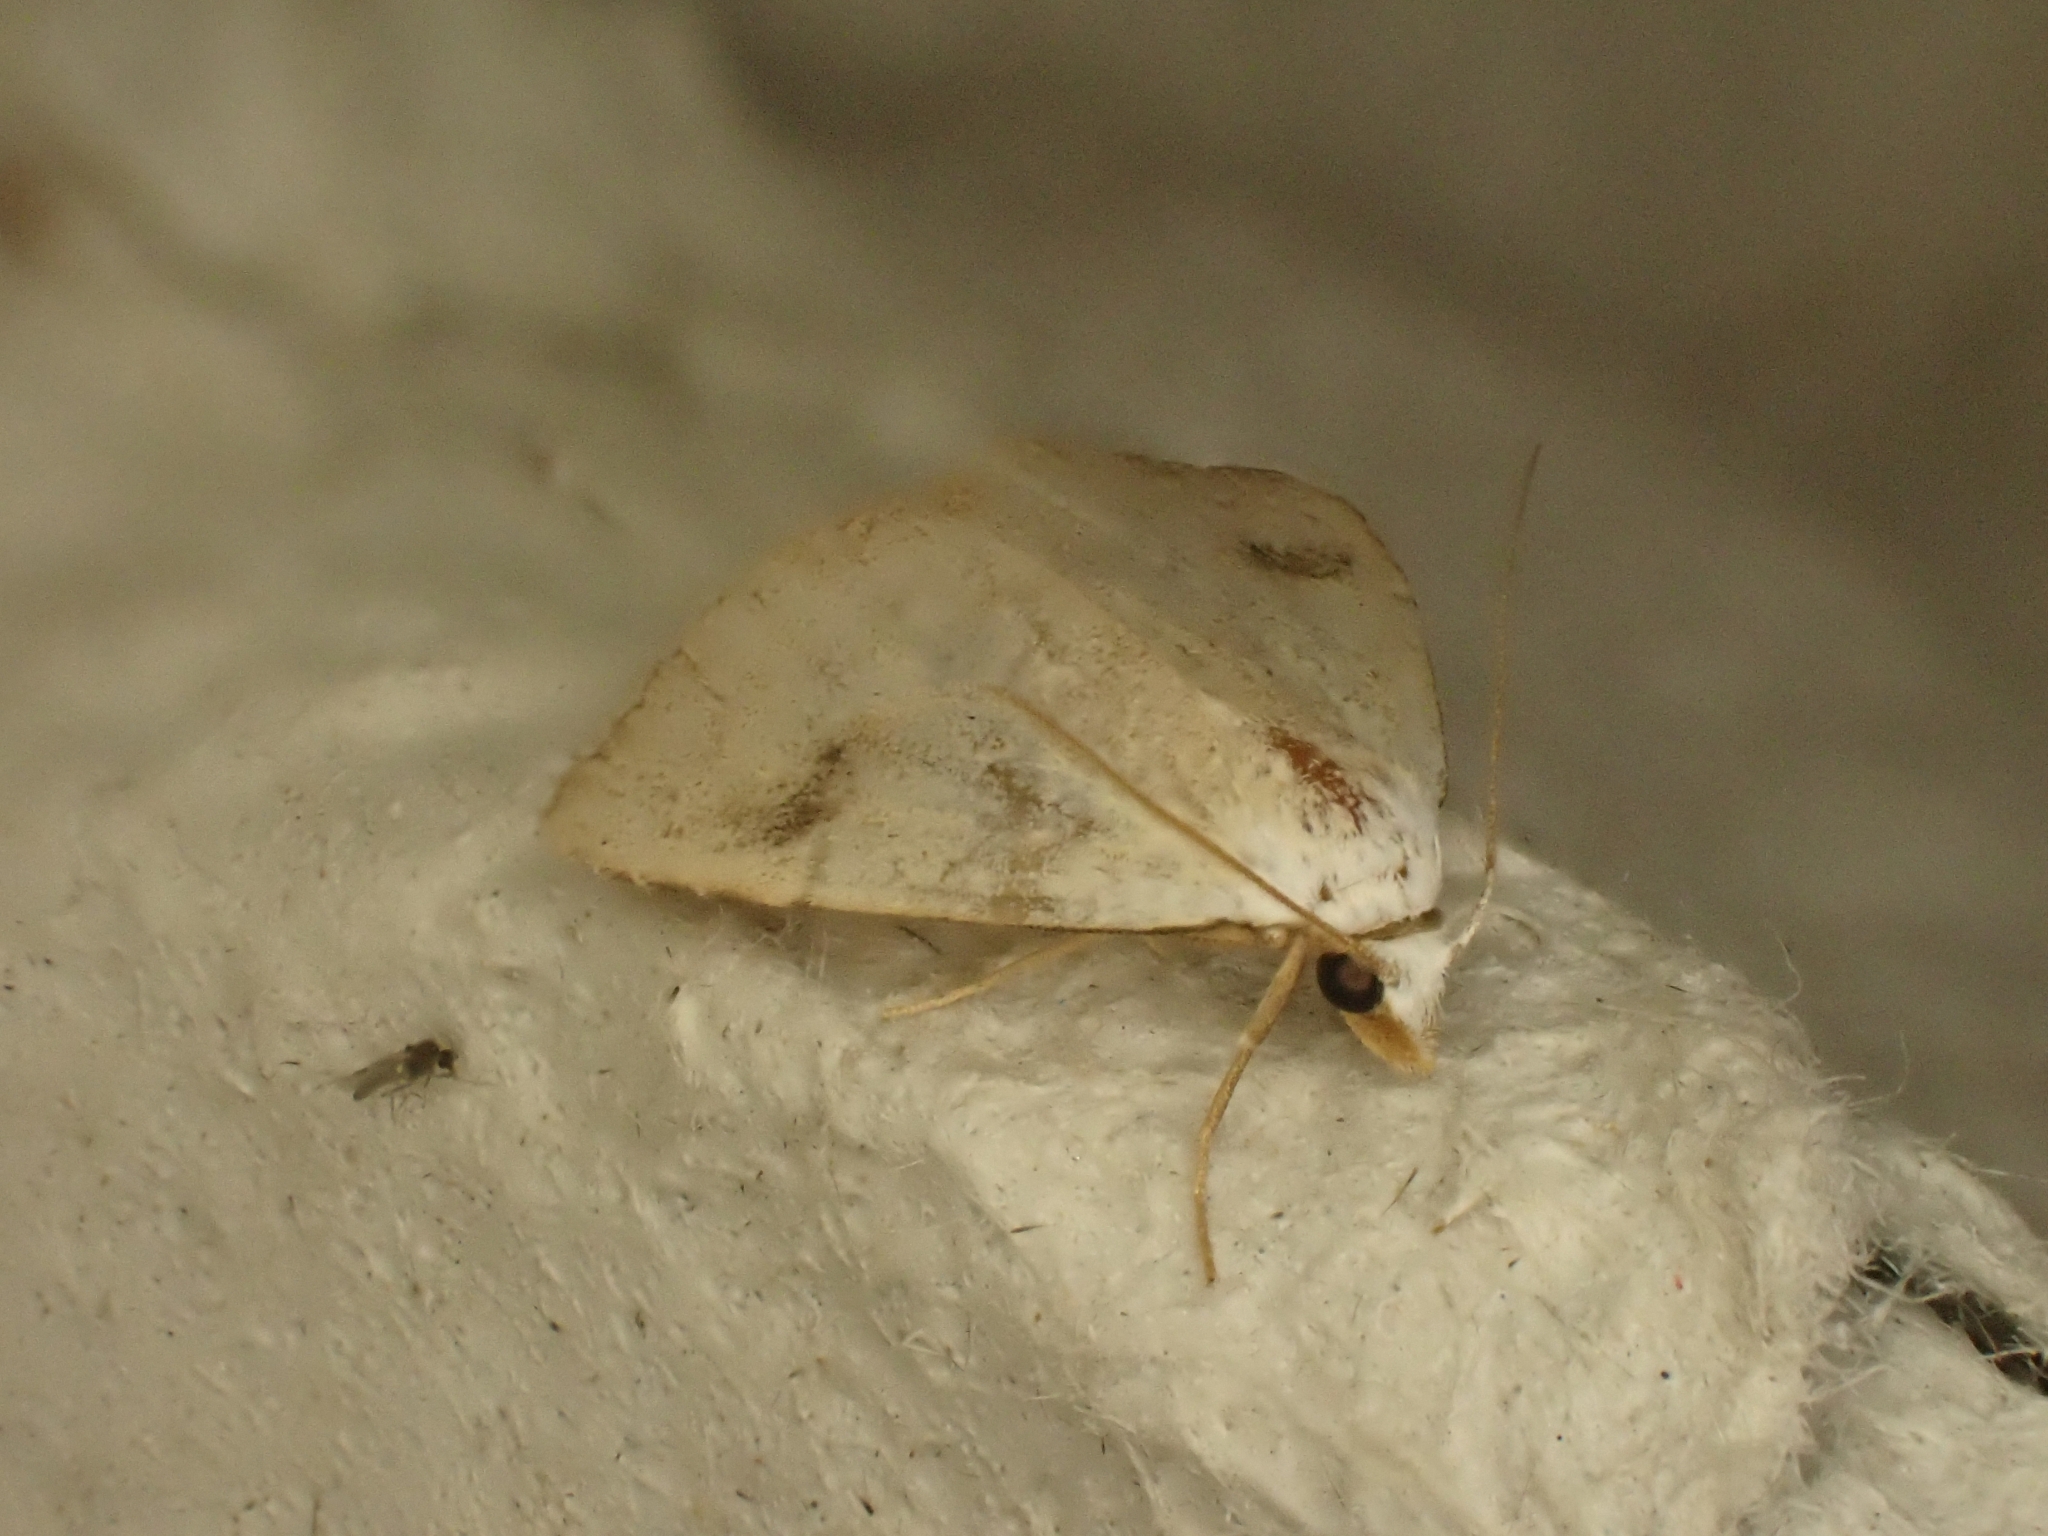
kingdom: Animalia
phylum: Arthropoda
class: Insecta
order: Lepidoptera
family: Erebidae
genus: Rivula
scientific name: Rivula sericealis
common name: Straw dot
